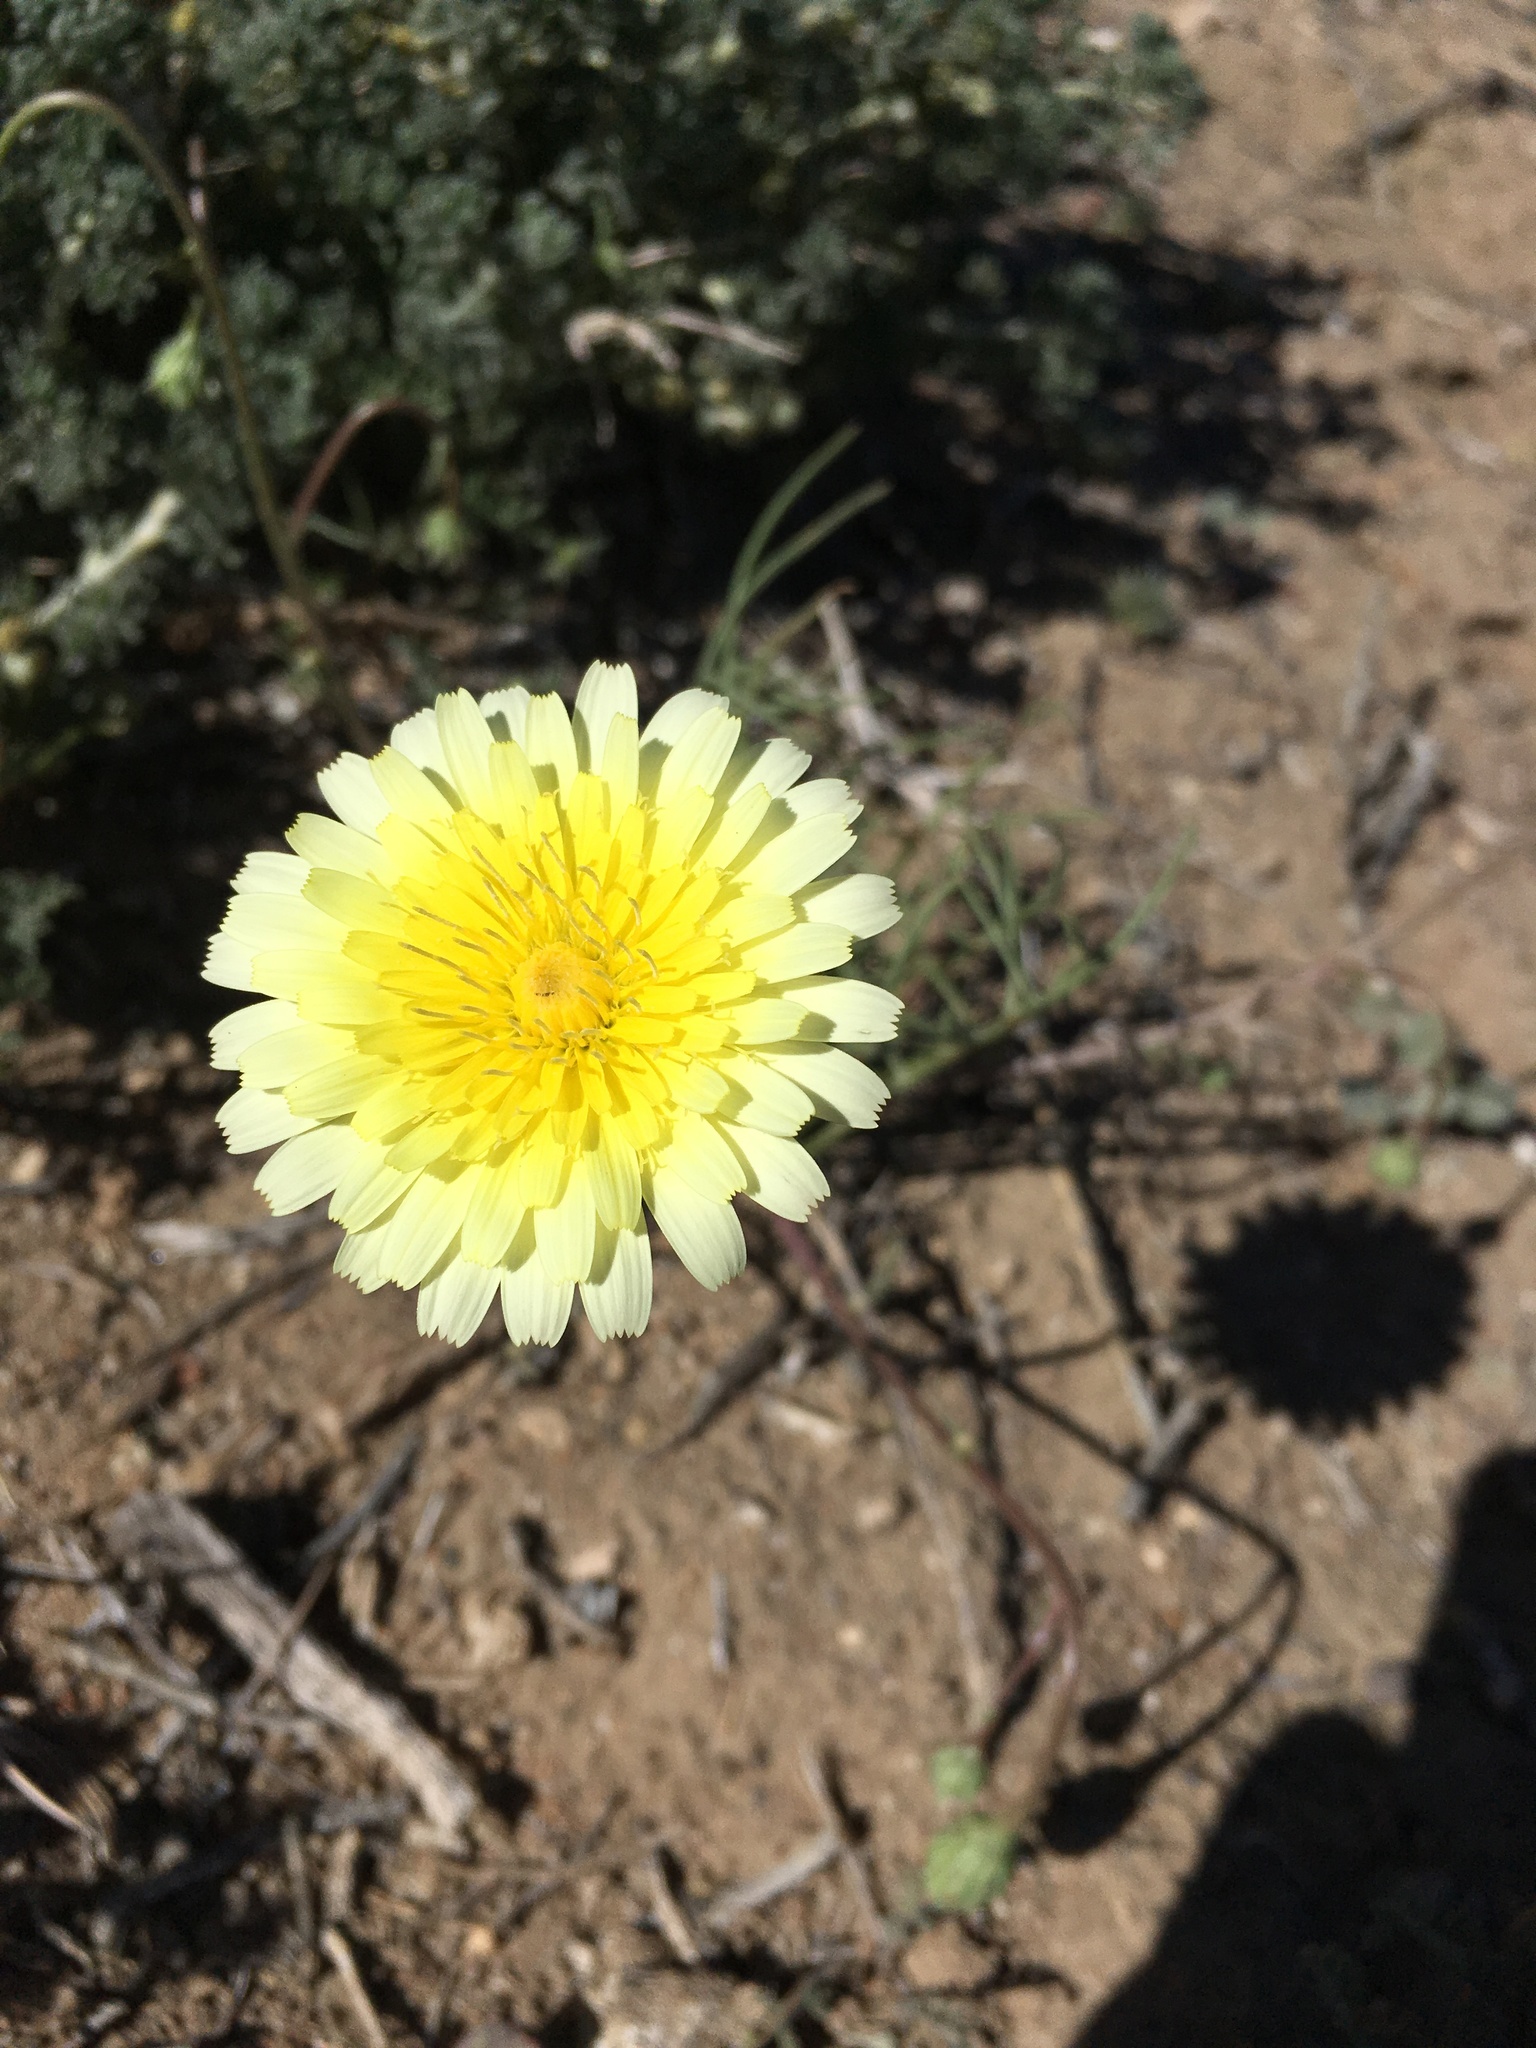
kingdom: Plantae
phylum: Tracheophyta
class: Magnoliopsida
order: Asterales
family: Asteraceae
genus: Malacothrix
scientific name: Malacothrix glabrata
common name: Smooth desert-dandelion
